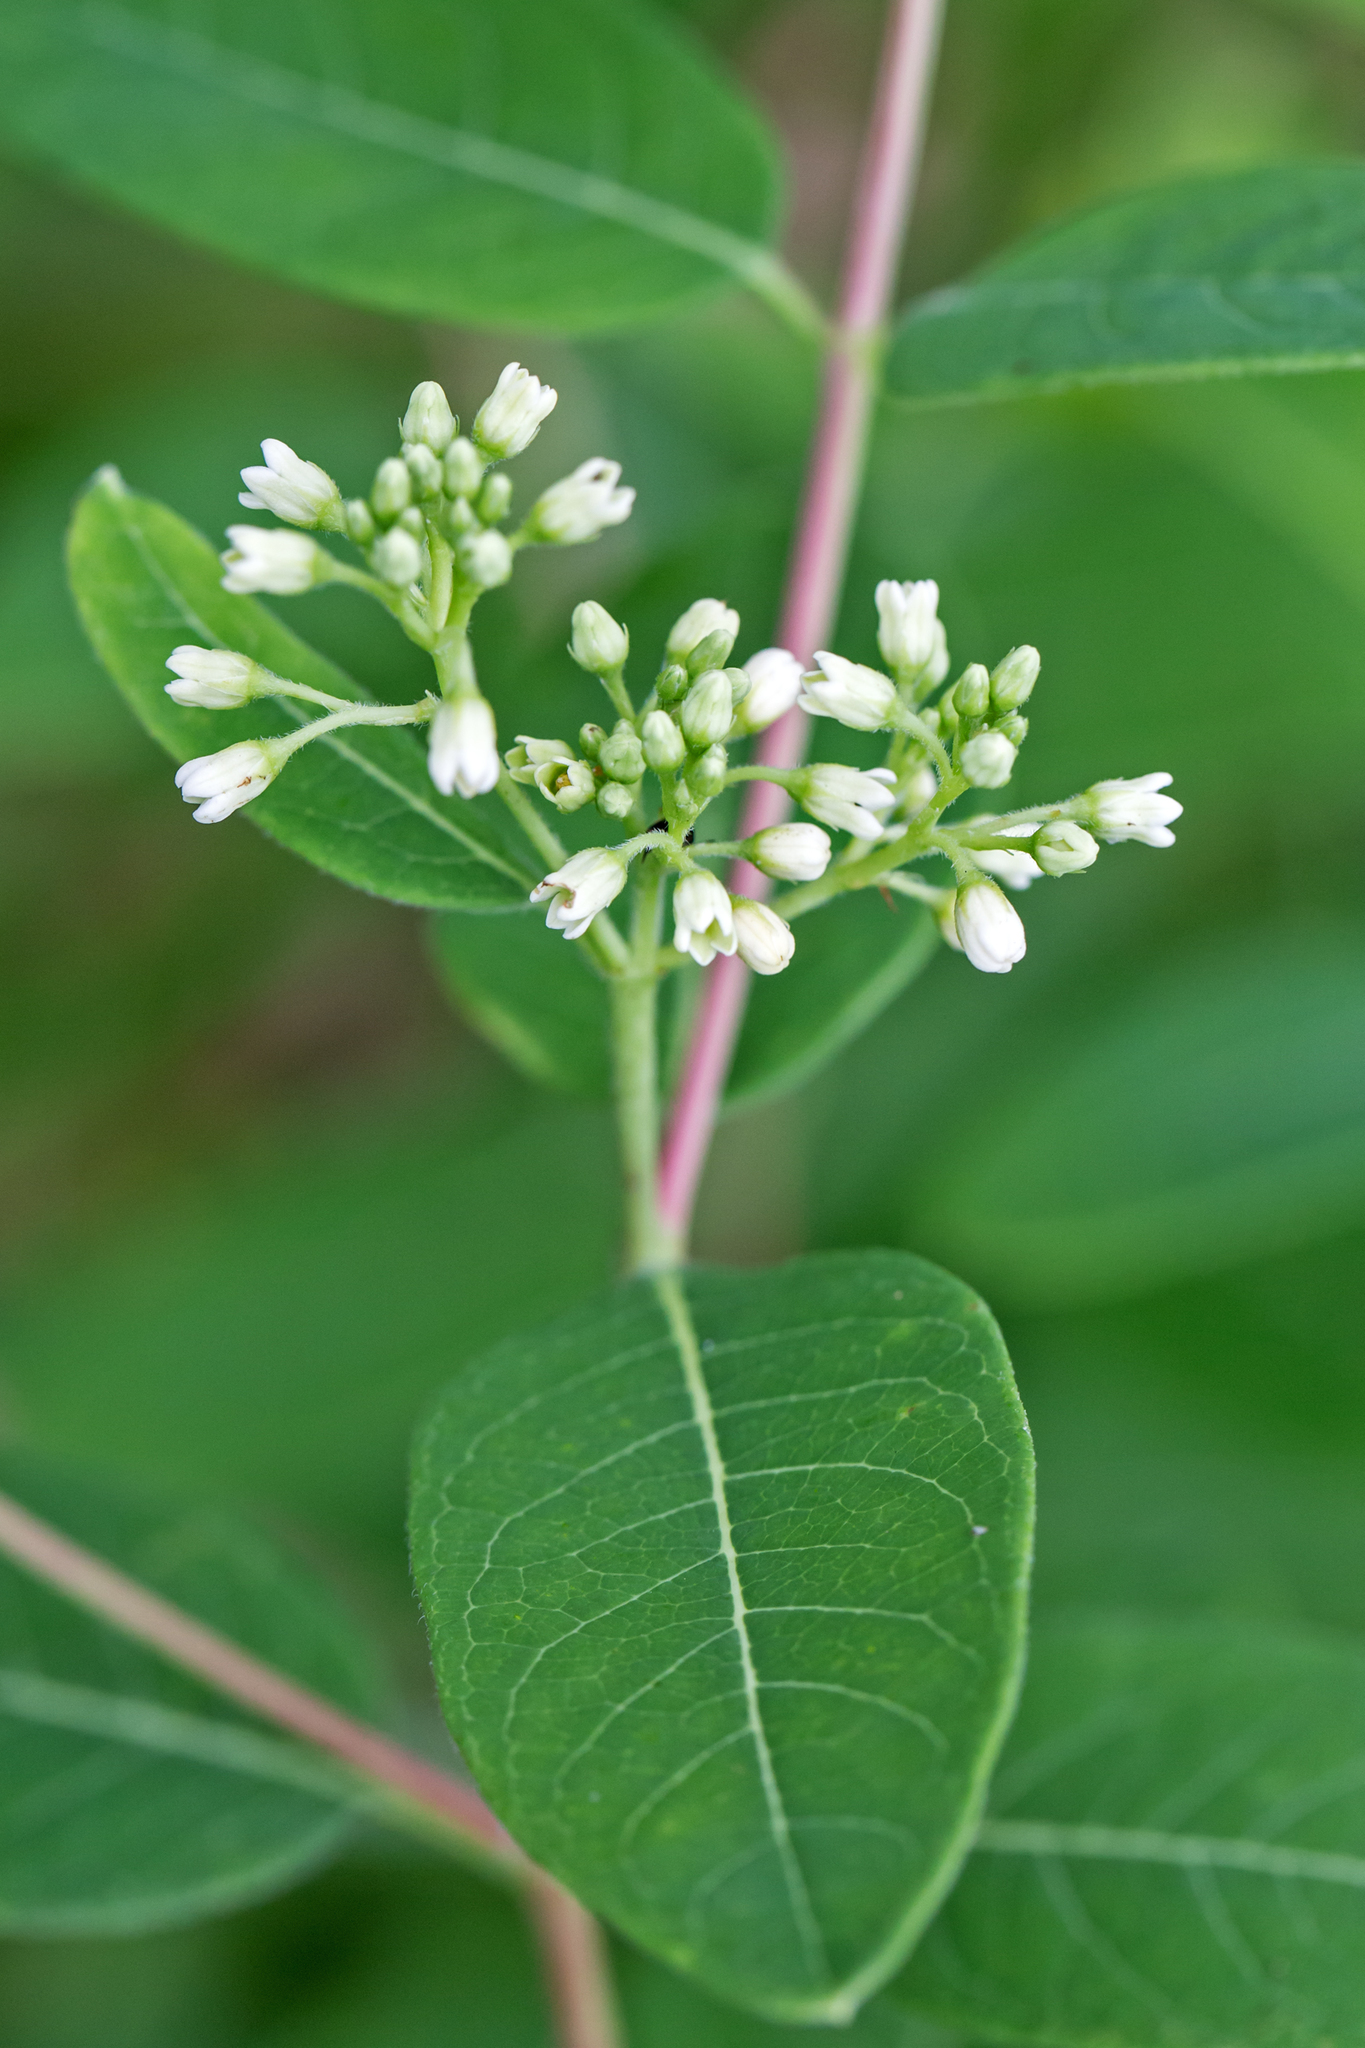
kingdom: Plantae
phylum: Tracheophyta
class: Magnoliopsida
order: Gentianales
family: Apocynaceae
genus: Apocynum
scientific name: Apocynum floribundum
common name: Hybrid dogbane
